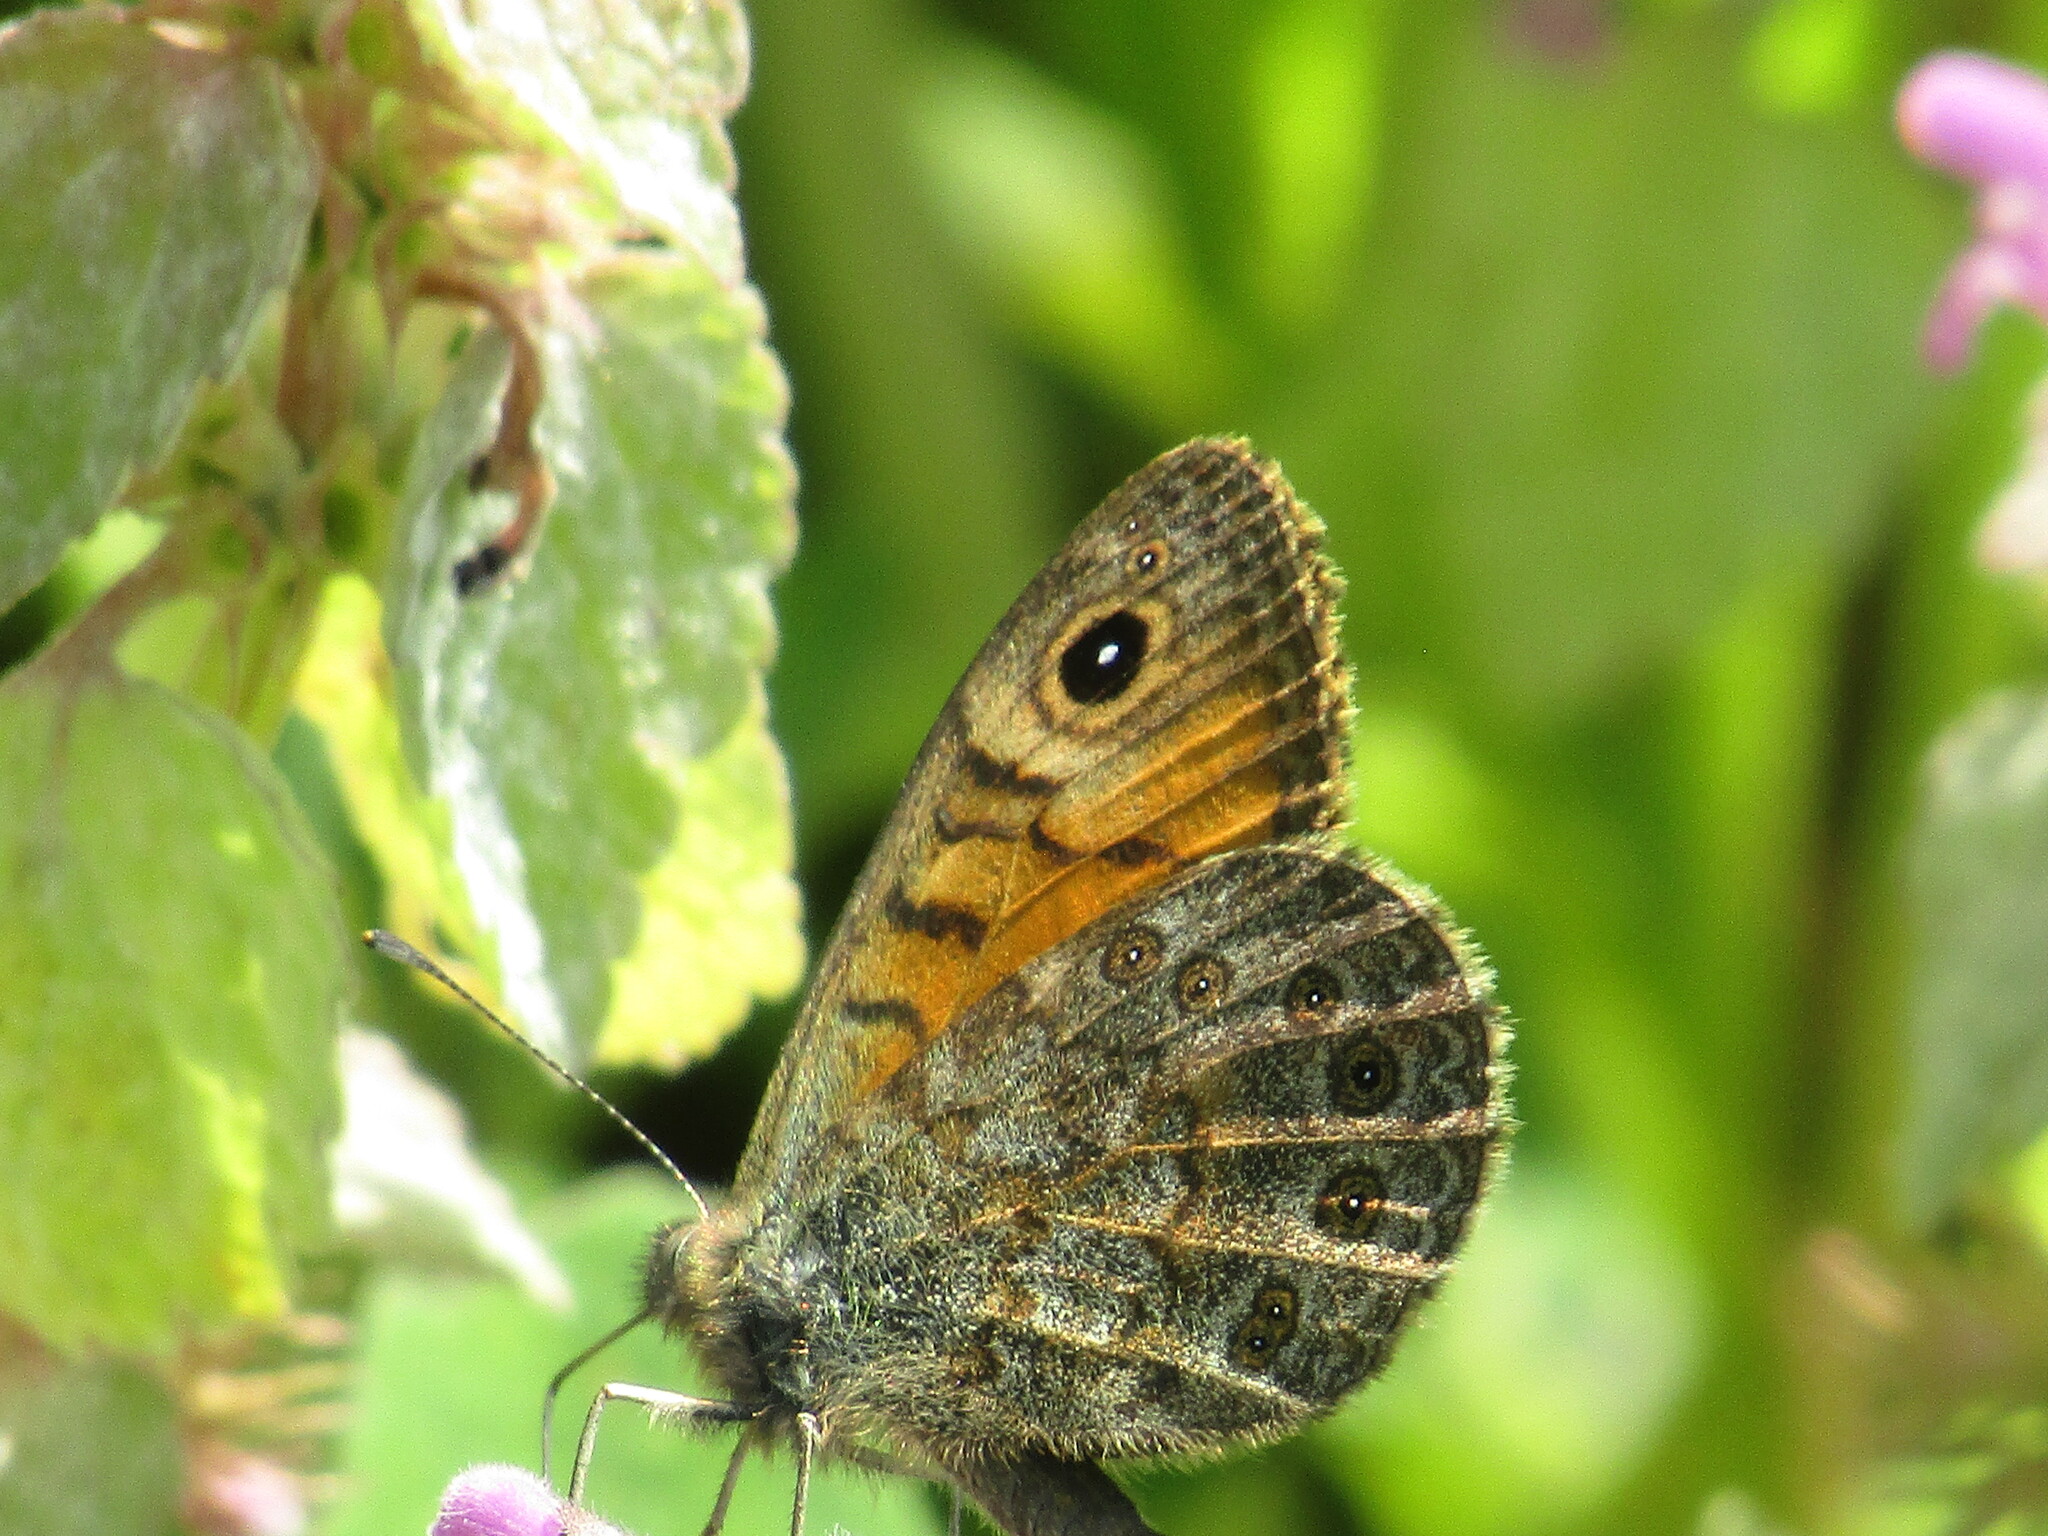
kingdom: Animalia
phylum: Arthropoda
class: Insecta
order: Lepidoptera
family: Nymphalidae
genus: Pararge
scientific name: Pararge Lasiommata megera
